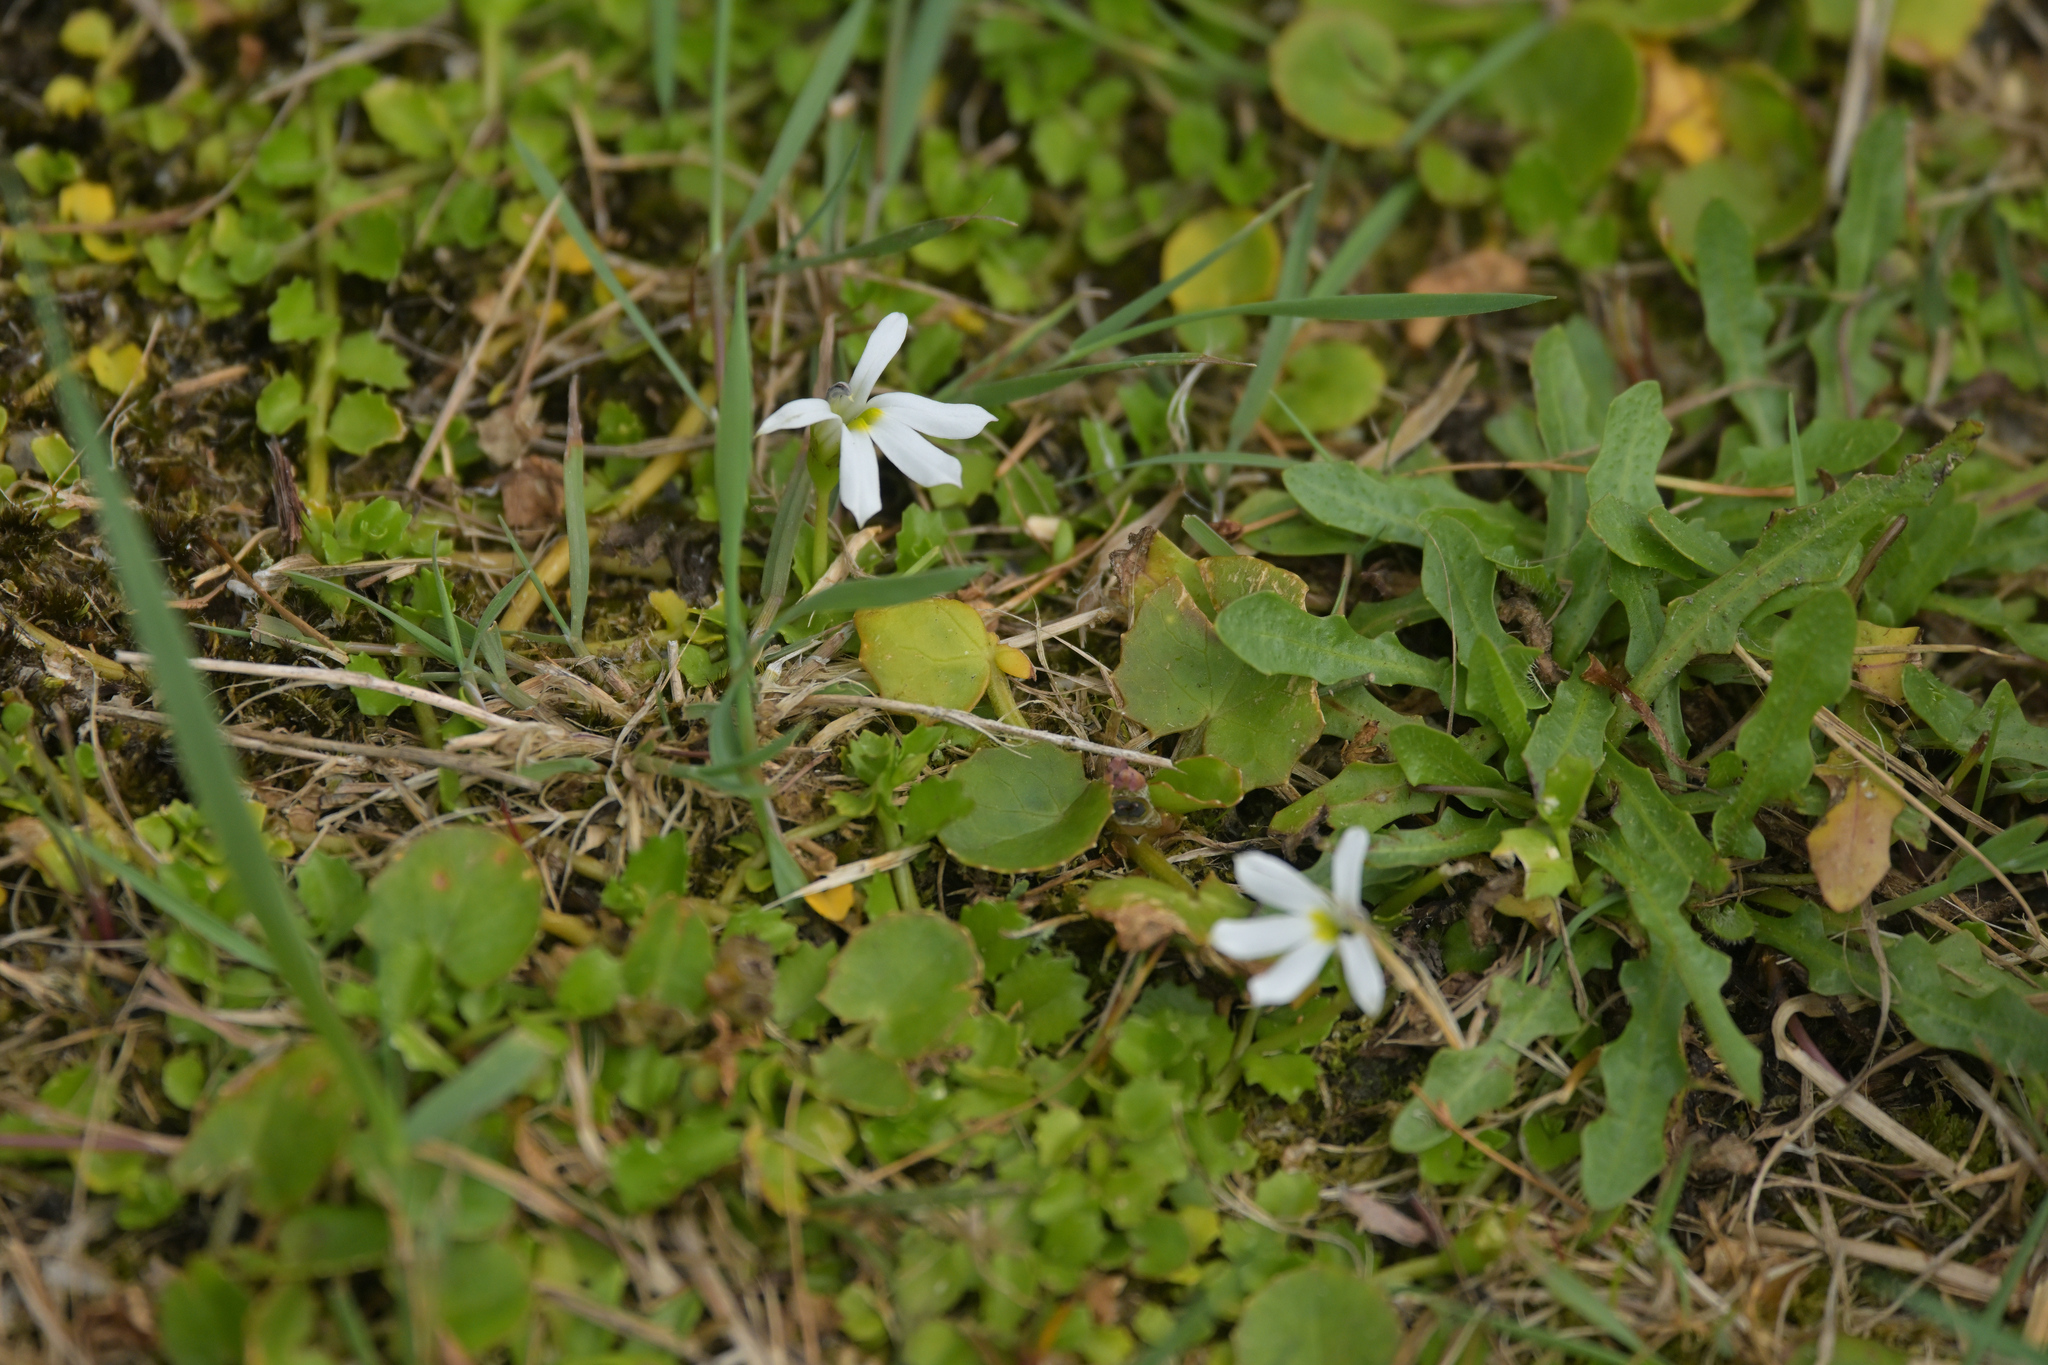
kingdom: Plantae
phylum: Tracheophyta
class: Magnoliopsida
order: Asterales
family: Campanulaceae
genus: Lobelia
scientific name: Lobelia angulata
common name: Lawn lobelia
